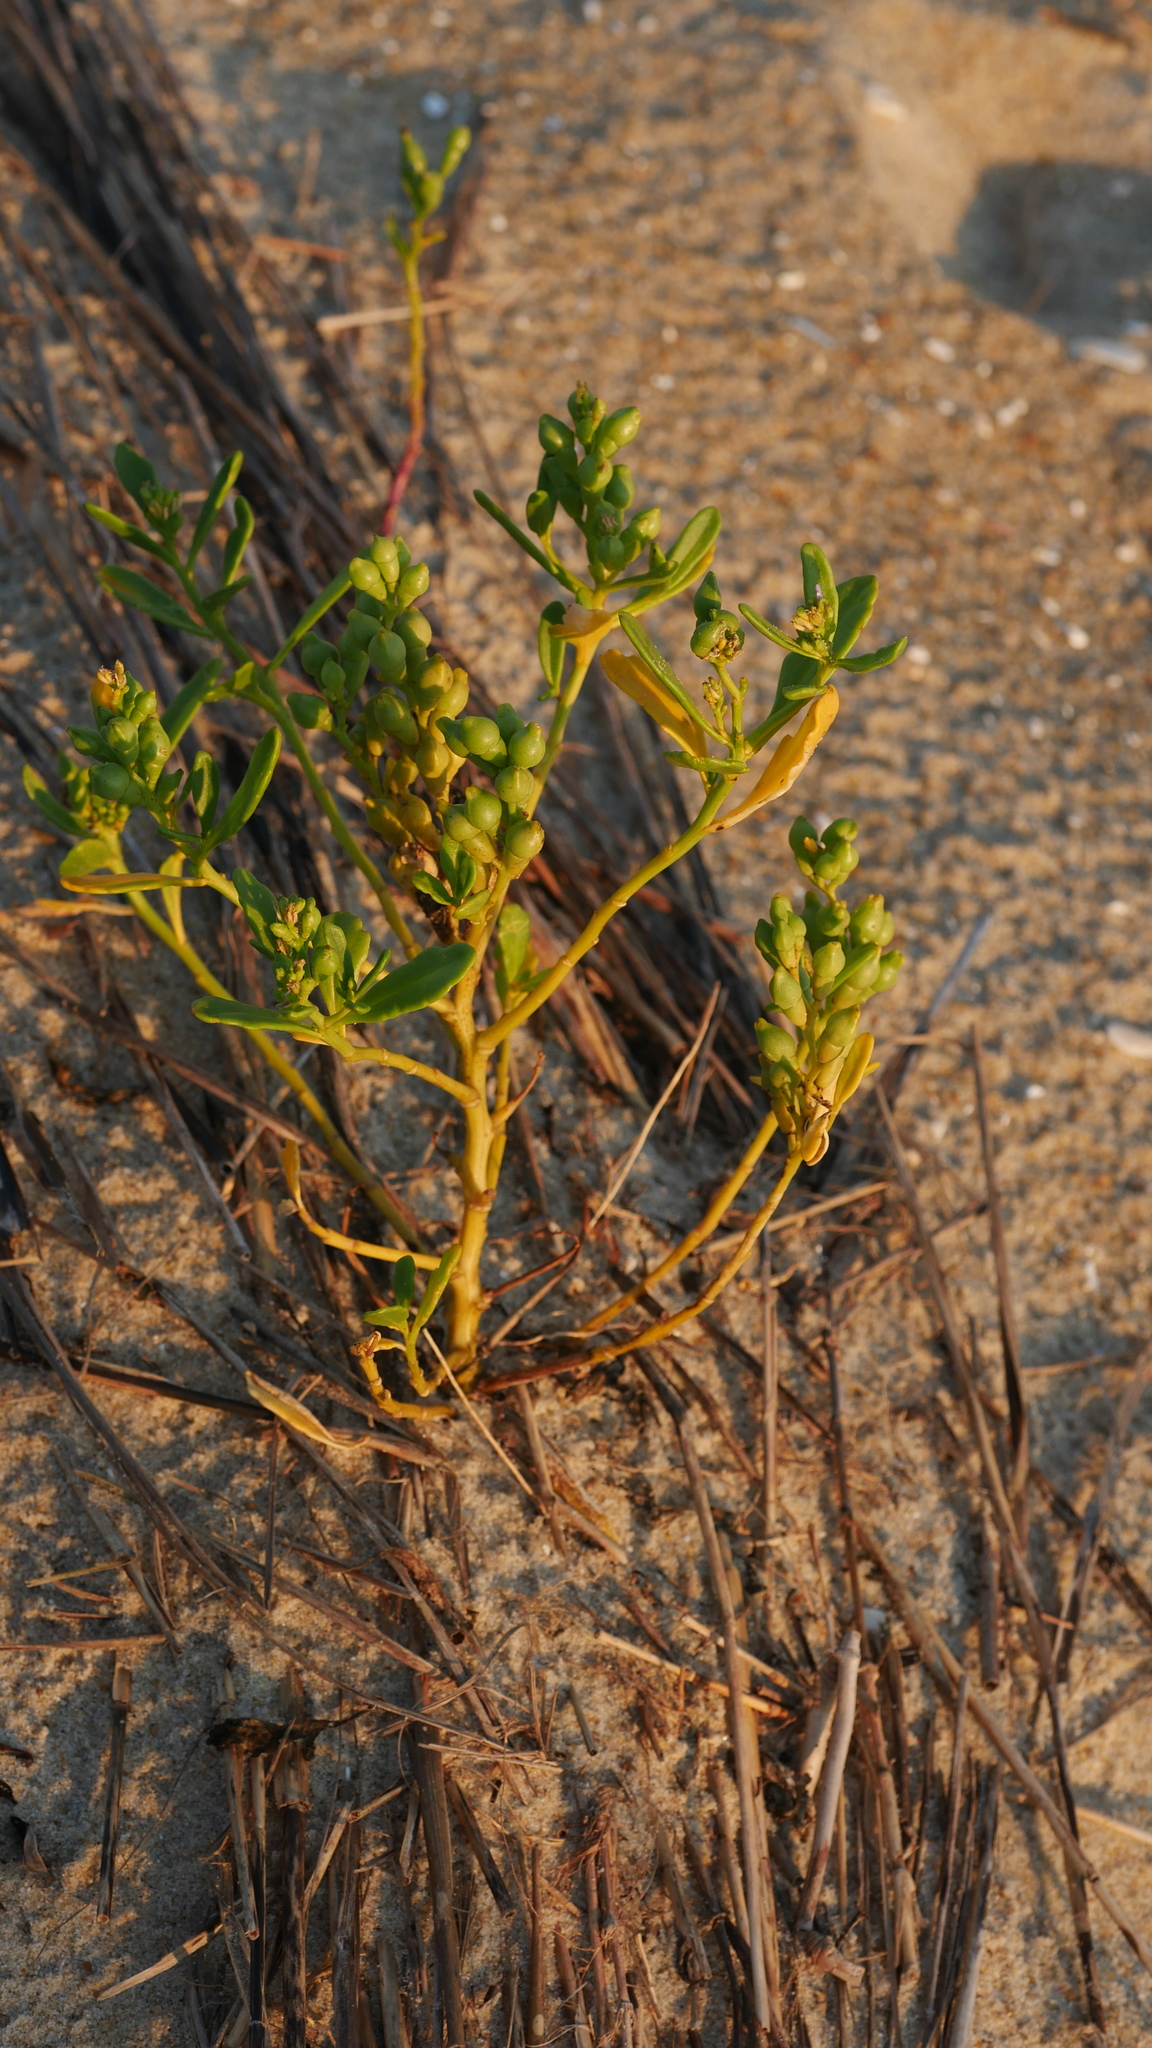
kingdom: Plantae
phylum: Tracheophyta
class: Magnoliopsida
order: Brassicales
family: Brassicaceae
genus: Cakile
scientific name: Cakile edentula
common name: American sea rocket
